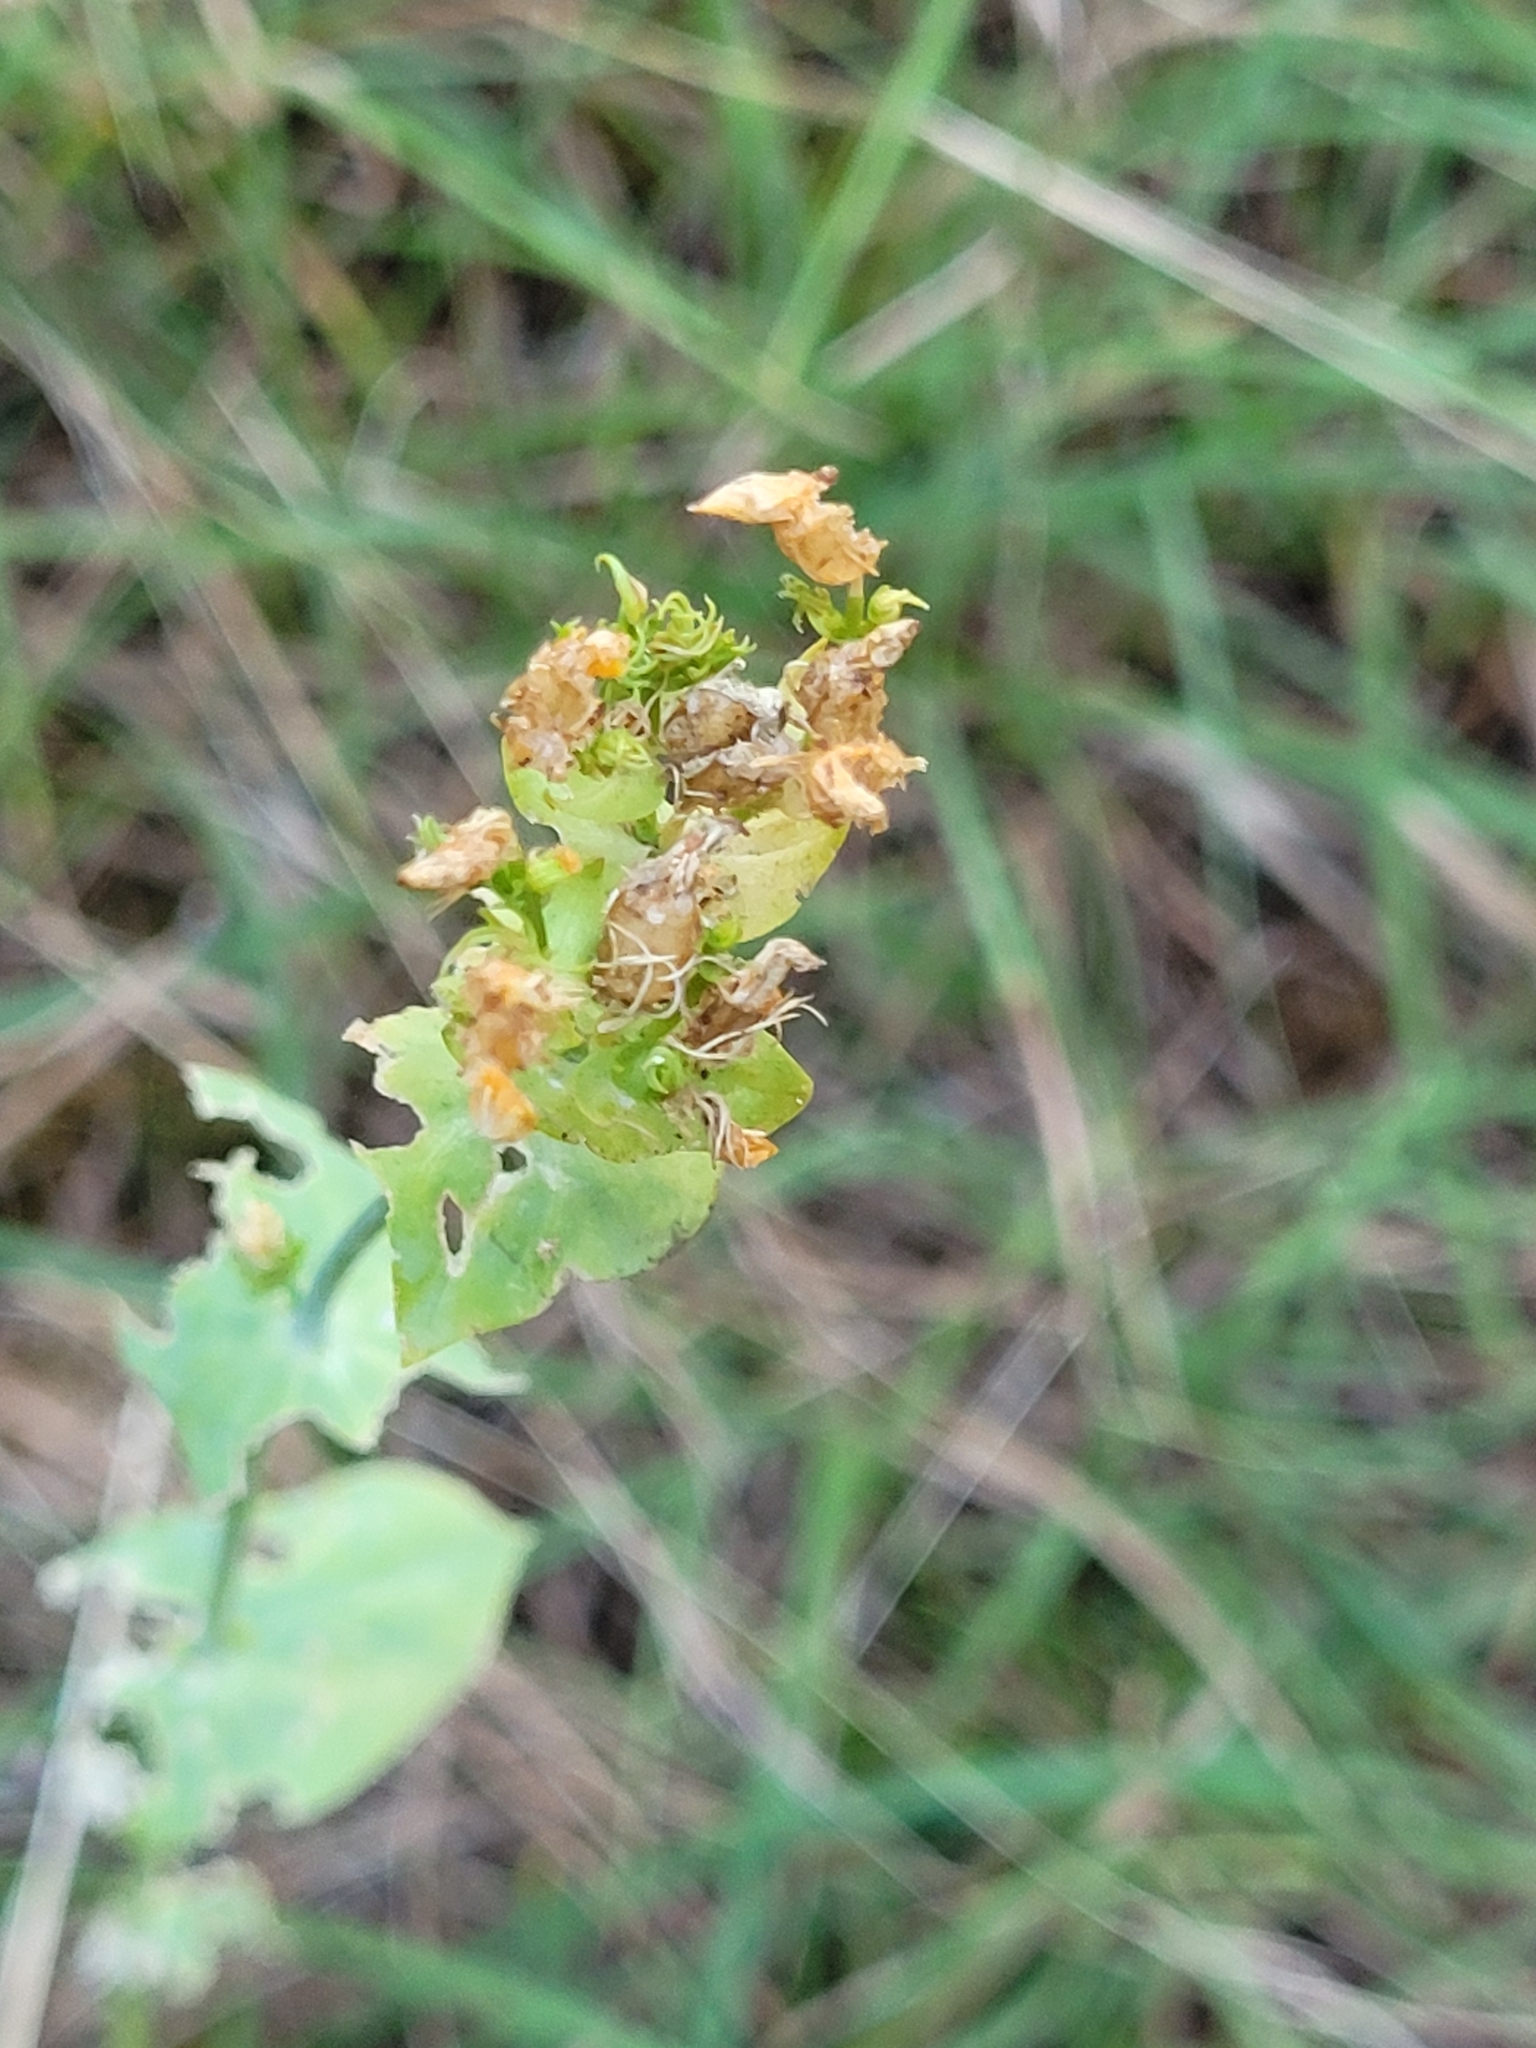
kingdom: Plantae
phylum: Tracheophyta
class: Magnoliopsida
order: Gentianales
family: Gentianaceae
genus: Blackstonia
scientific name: Blackstonia perfoliata
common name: Yellow-wort
